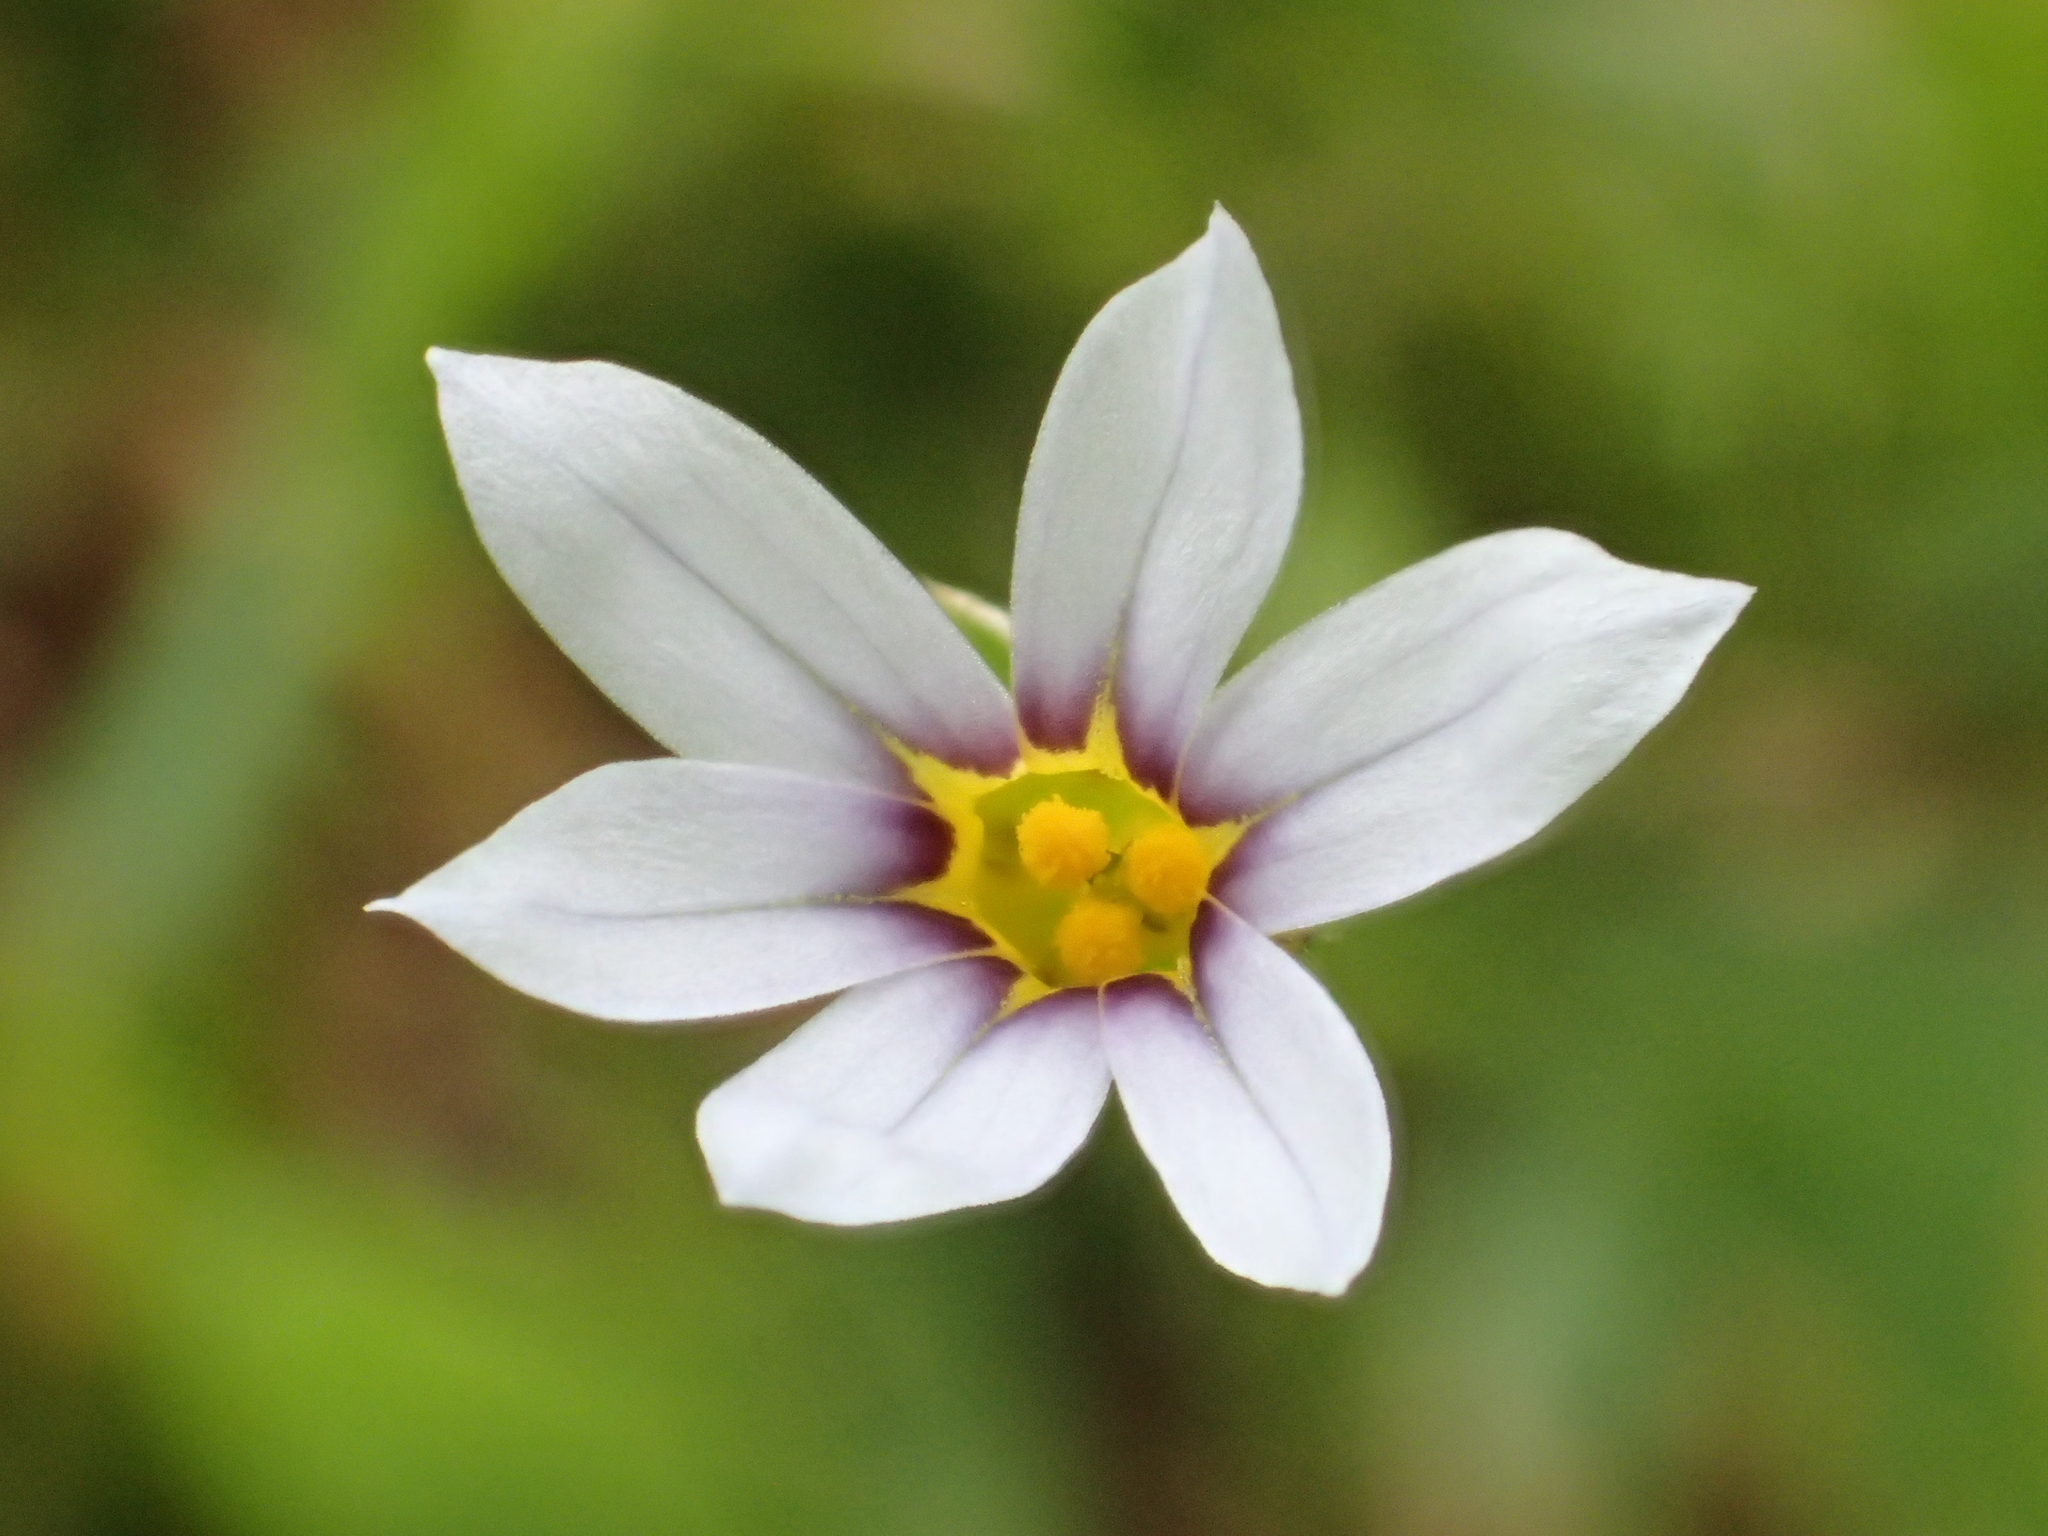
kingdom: Plantae
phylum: Tracheophyta
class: Liliopsida
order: Asparagales
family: Iridaceae
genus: Sisyrinchium
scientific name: Sisyrinchium micranthum
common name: Bermuda pigroot
